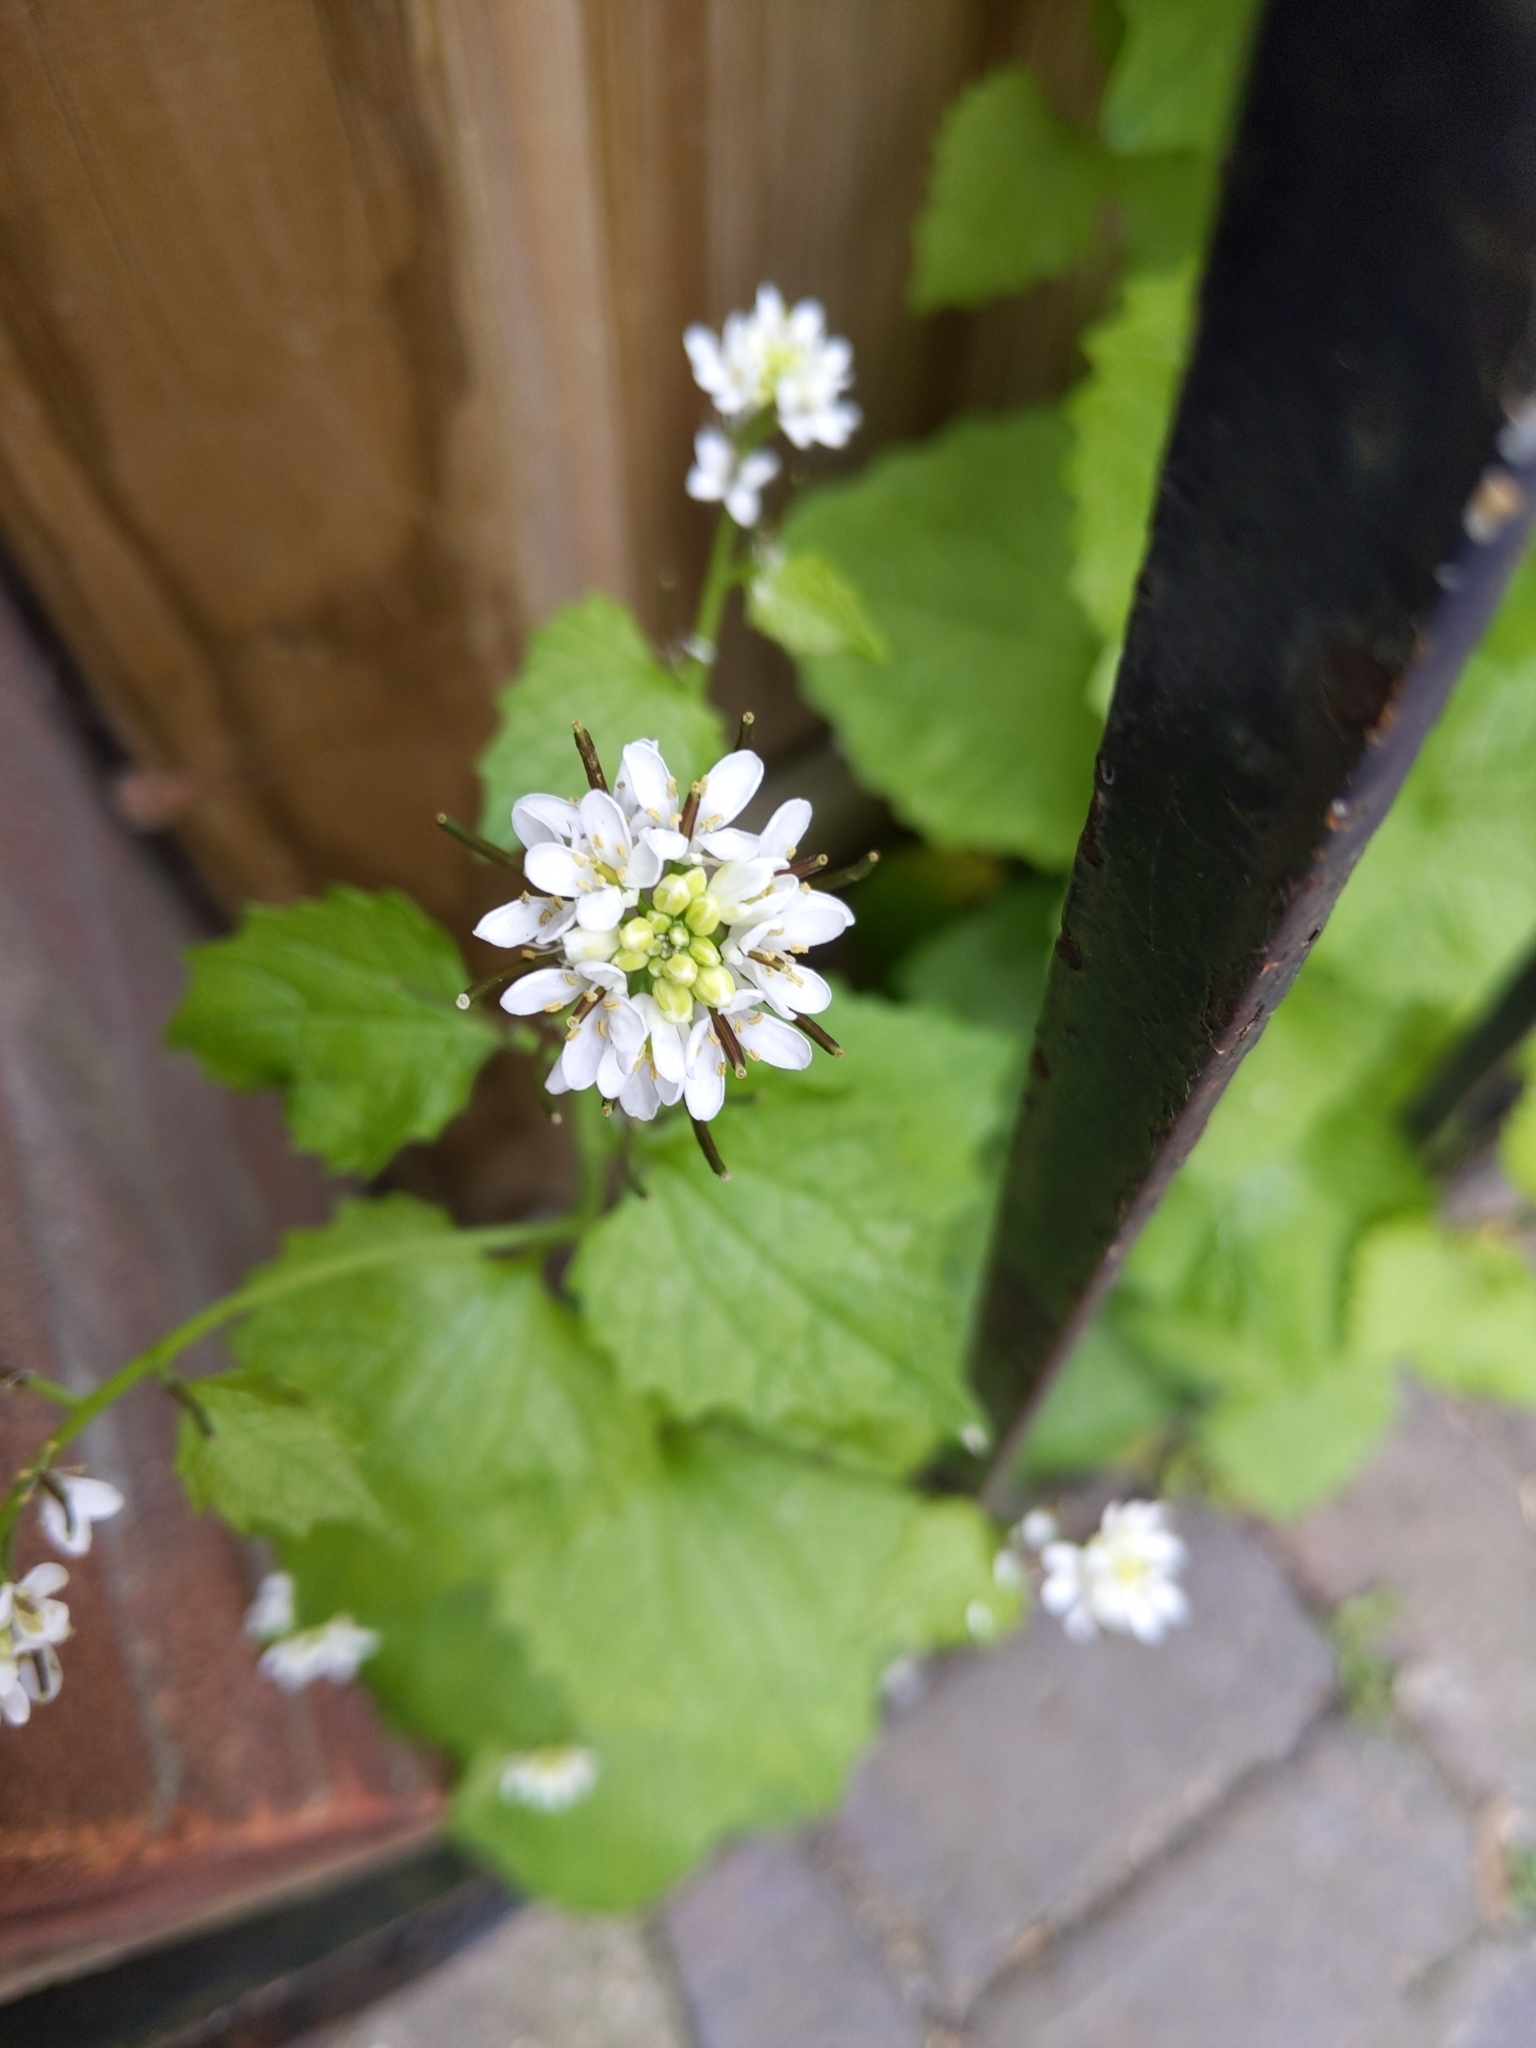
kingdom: Plantae
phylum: Tracheophyta
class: Magnoliopsida
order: Brassicales
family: Brassicaceae
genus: Alliaria
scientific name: Alliaria petiolata
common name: Garlic mustard
